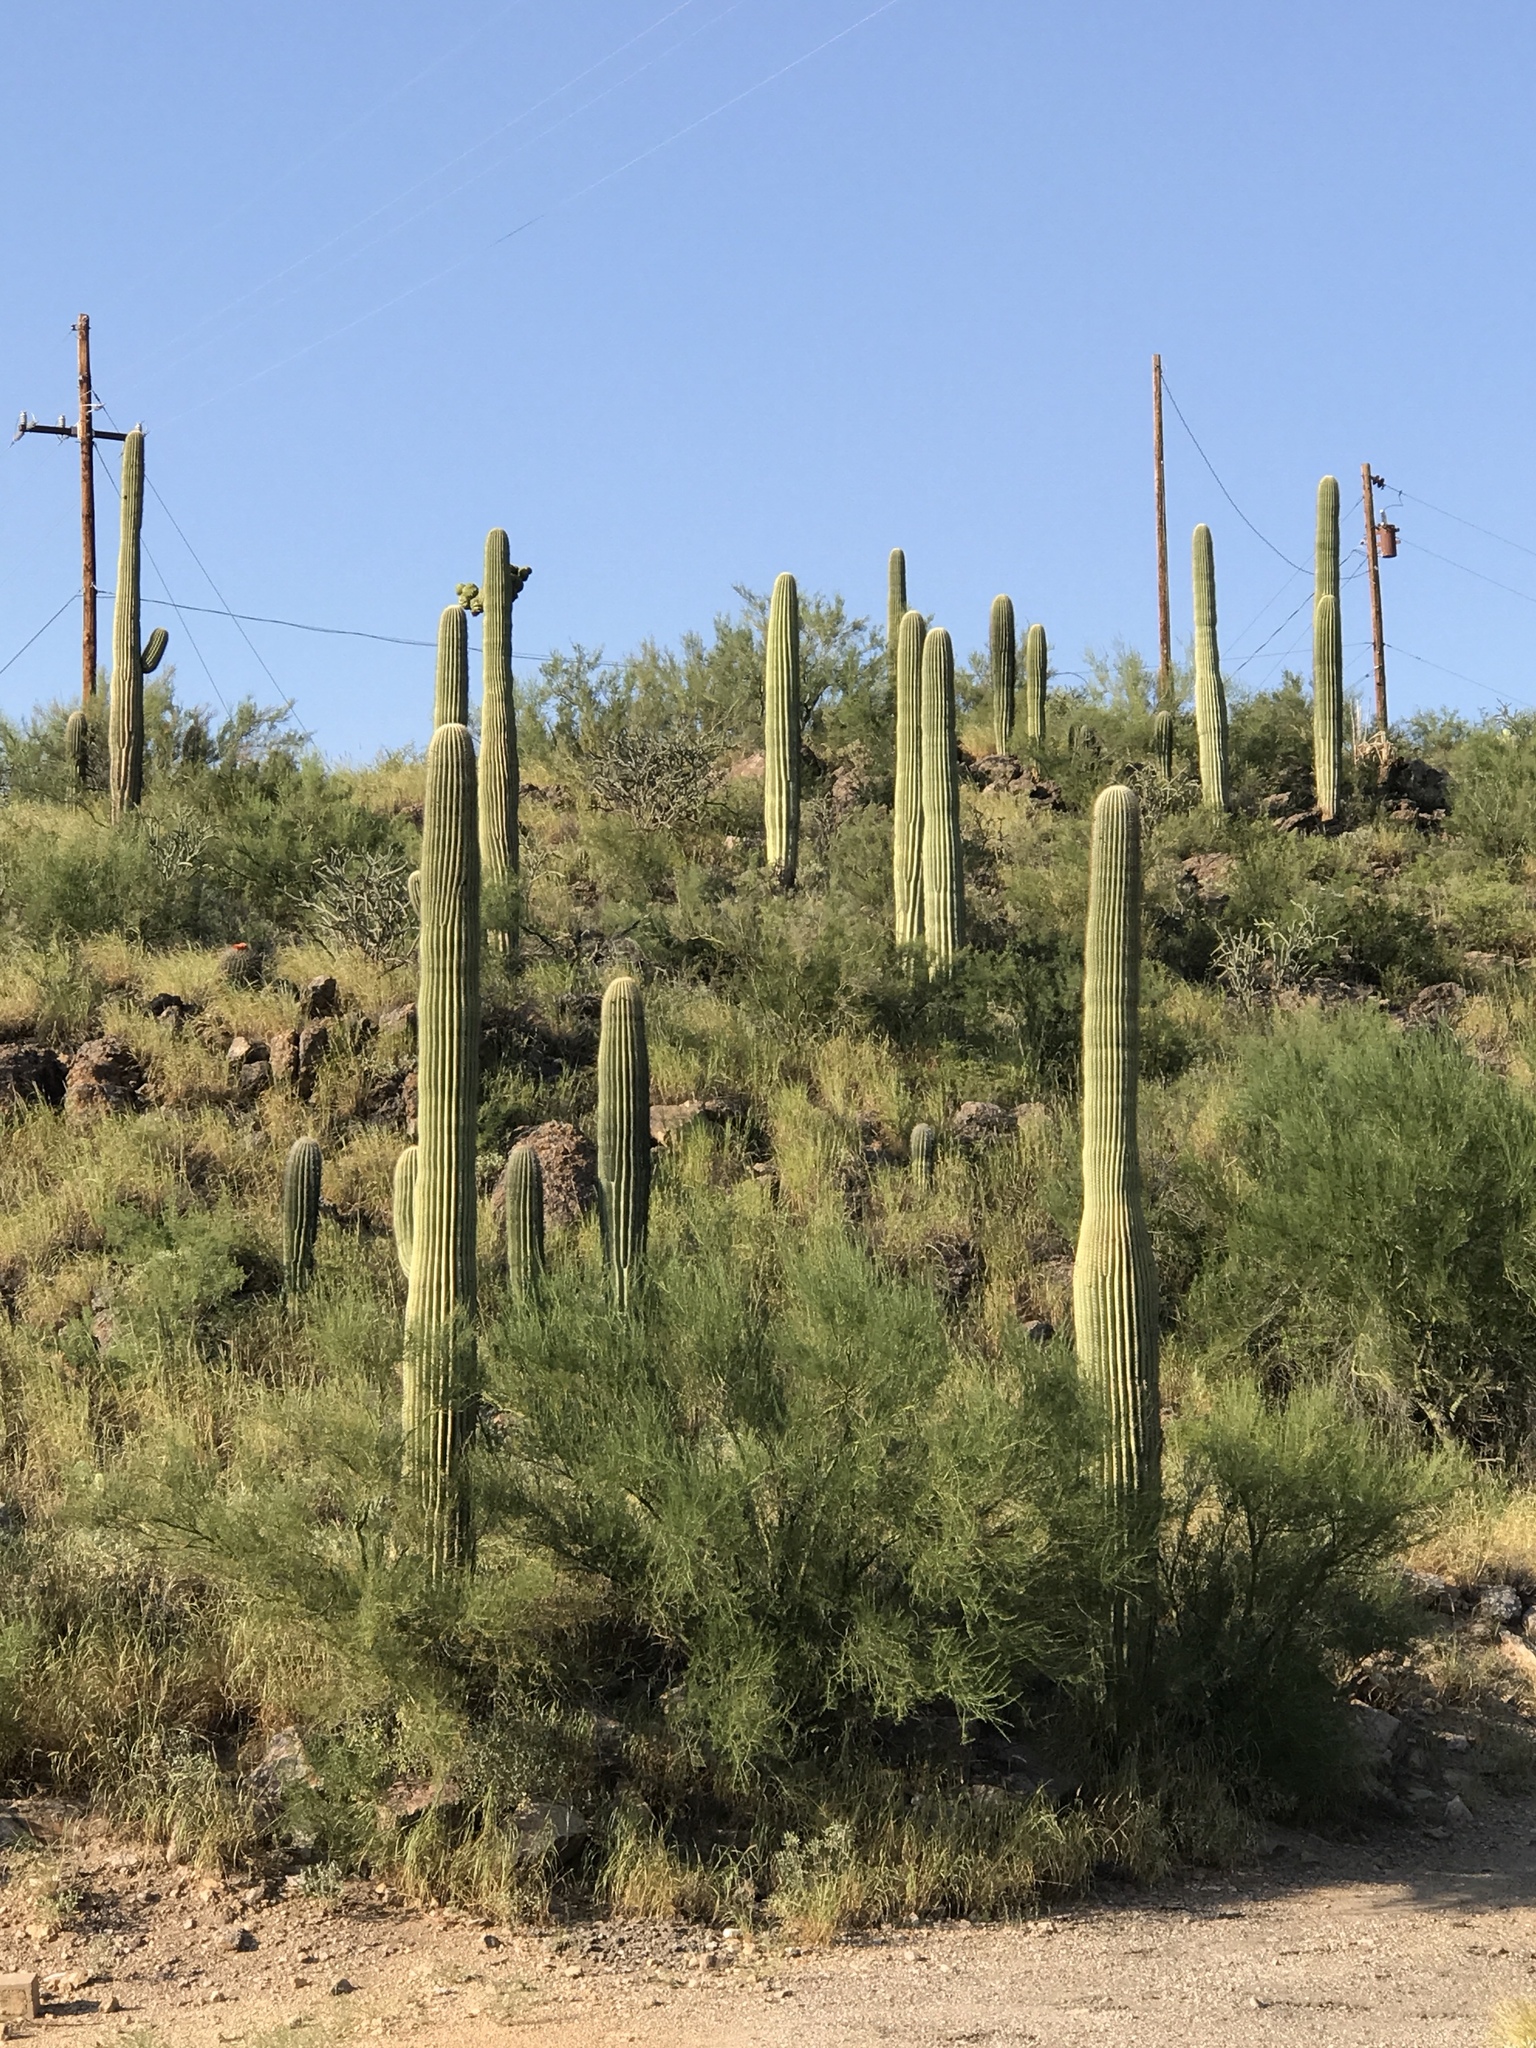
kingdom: Plantae
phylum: Tracheophyta
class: Magnoliopsida
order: Caryophyllales
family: Cactaceae
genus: Carnegiea
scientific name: Carnegiea gigantea
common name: Saguaro
